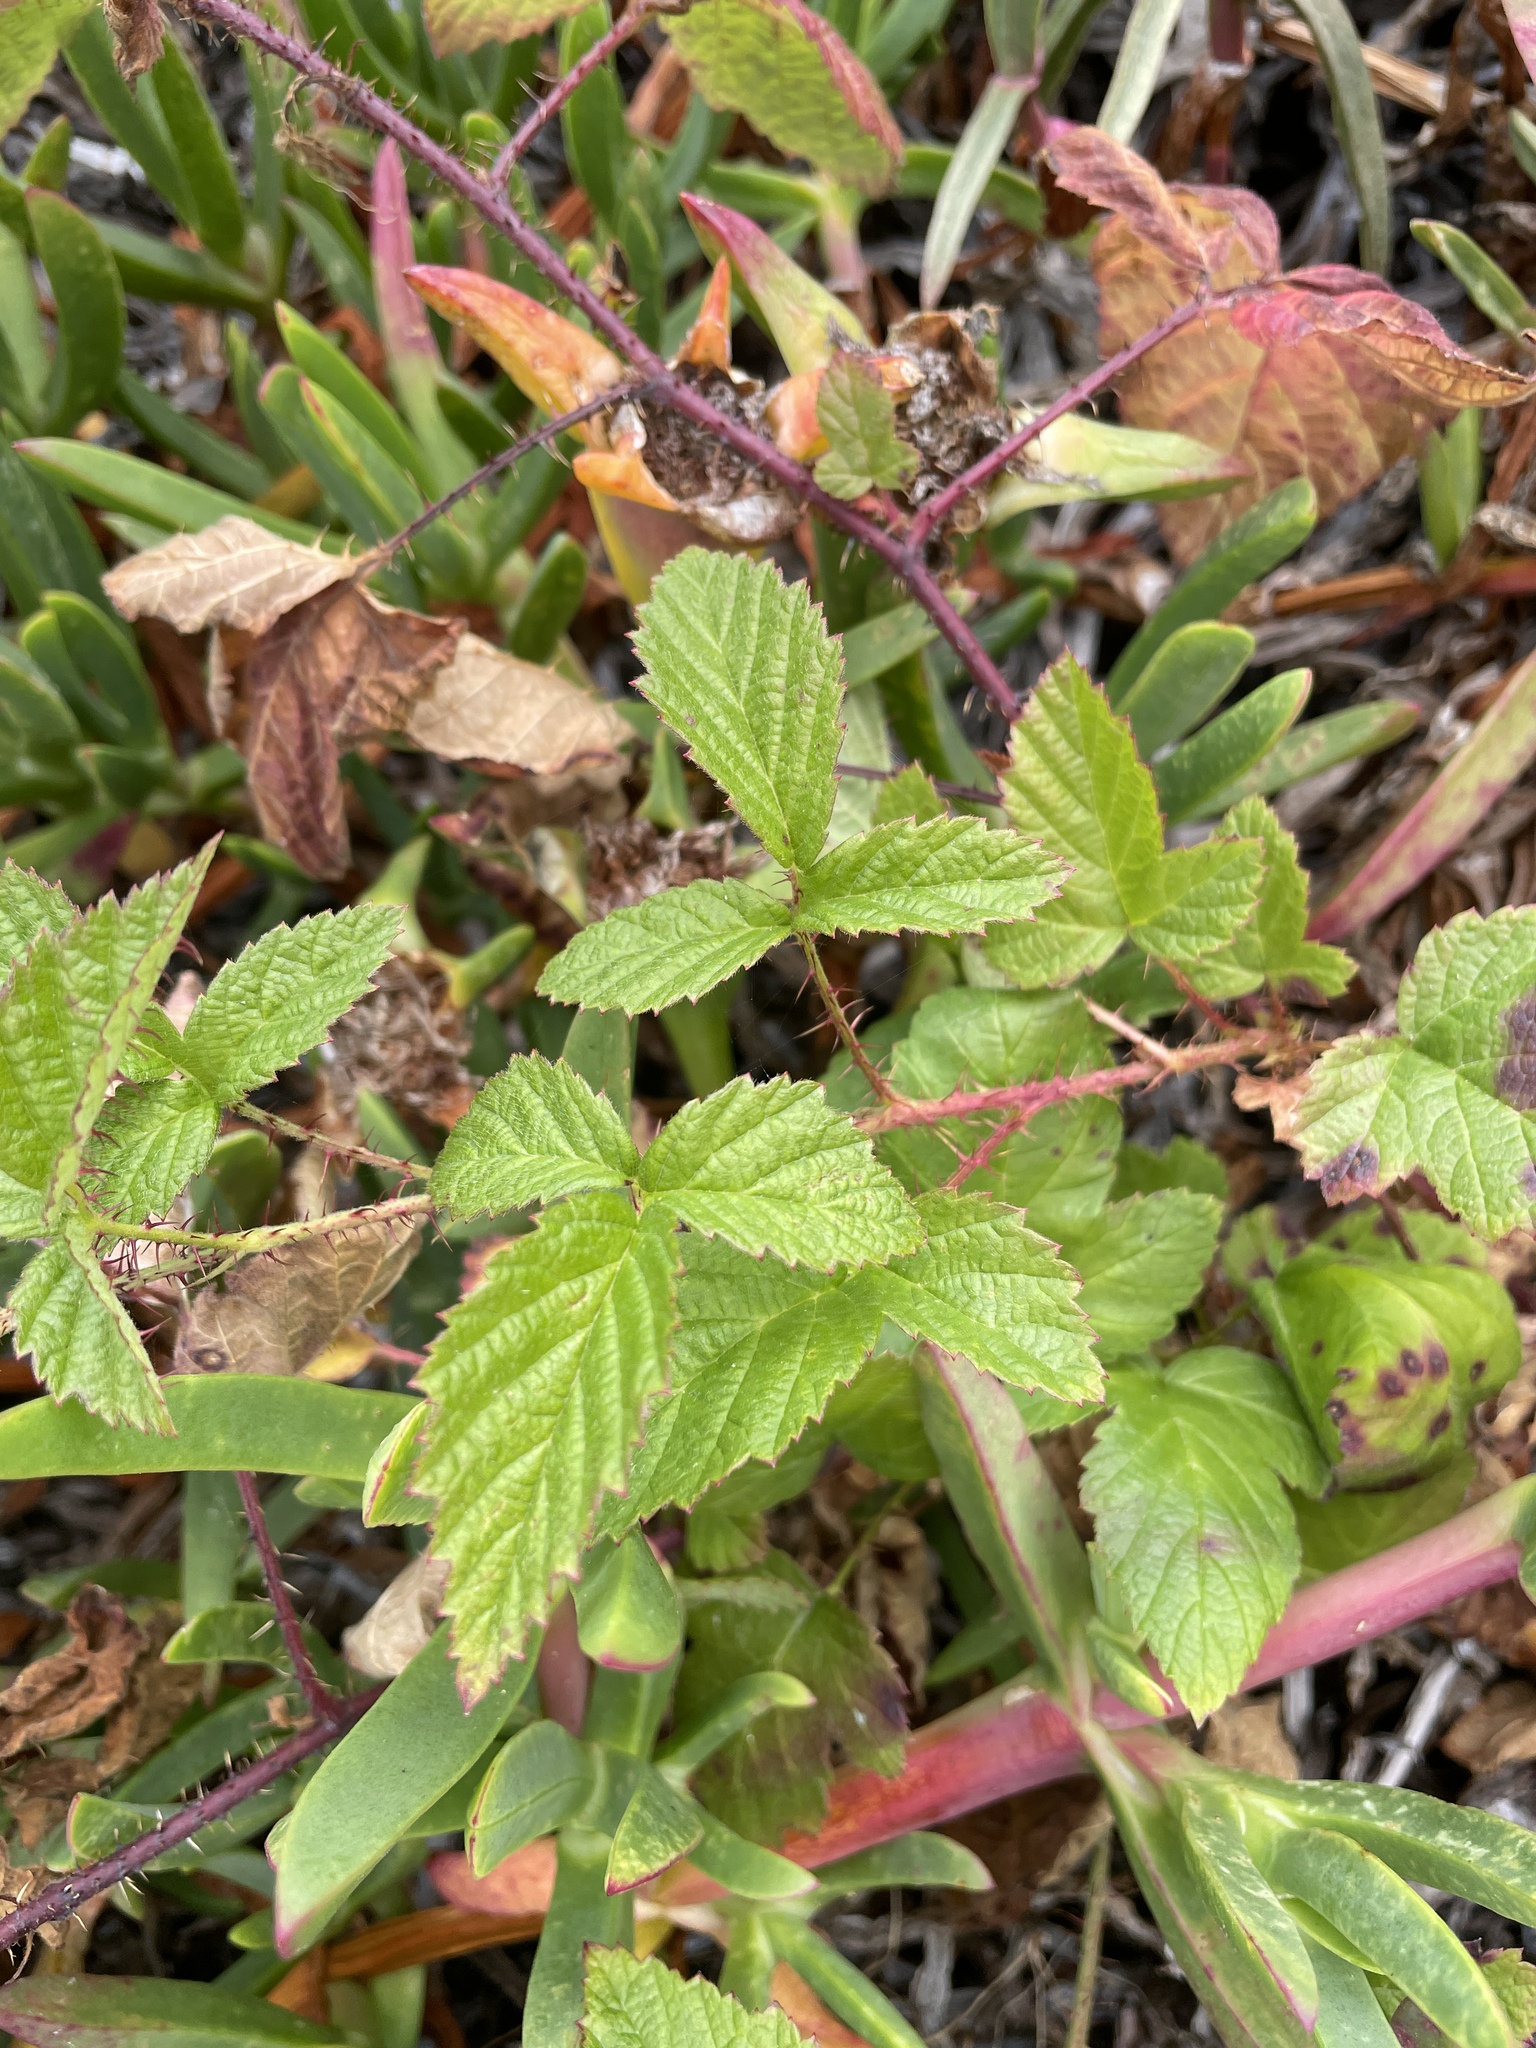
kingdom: Plantae
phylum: Tracheophyta
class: Magnoliopsida
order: Rosales
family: Rosaceae
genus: Rubus
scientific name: Rubus ursinus
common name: Pacific blackberry
